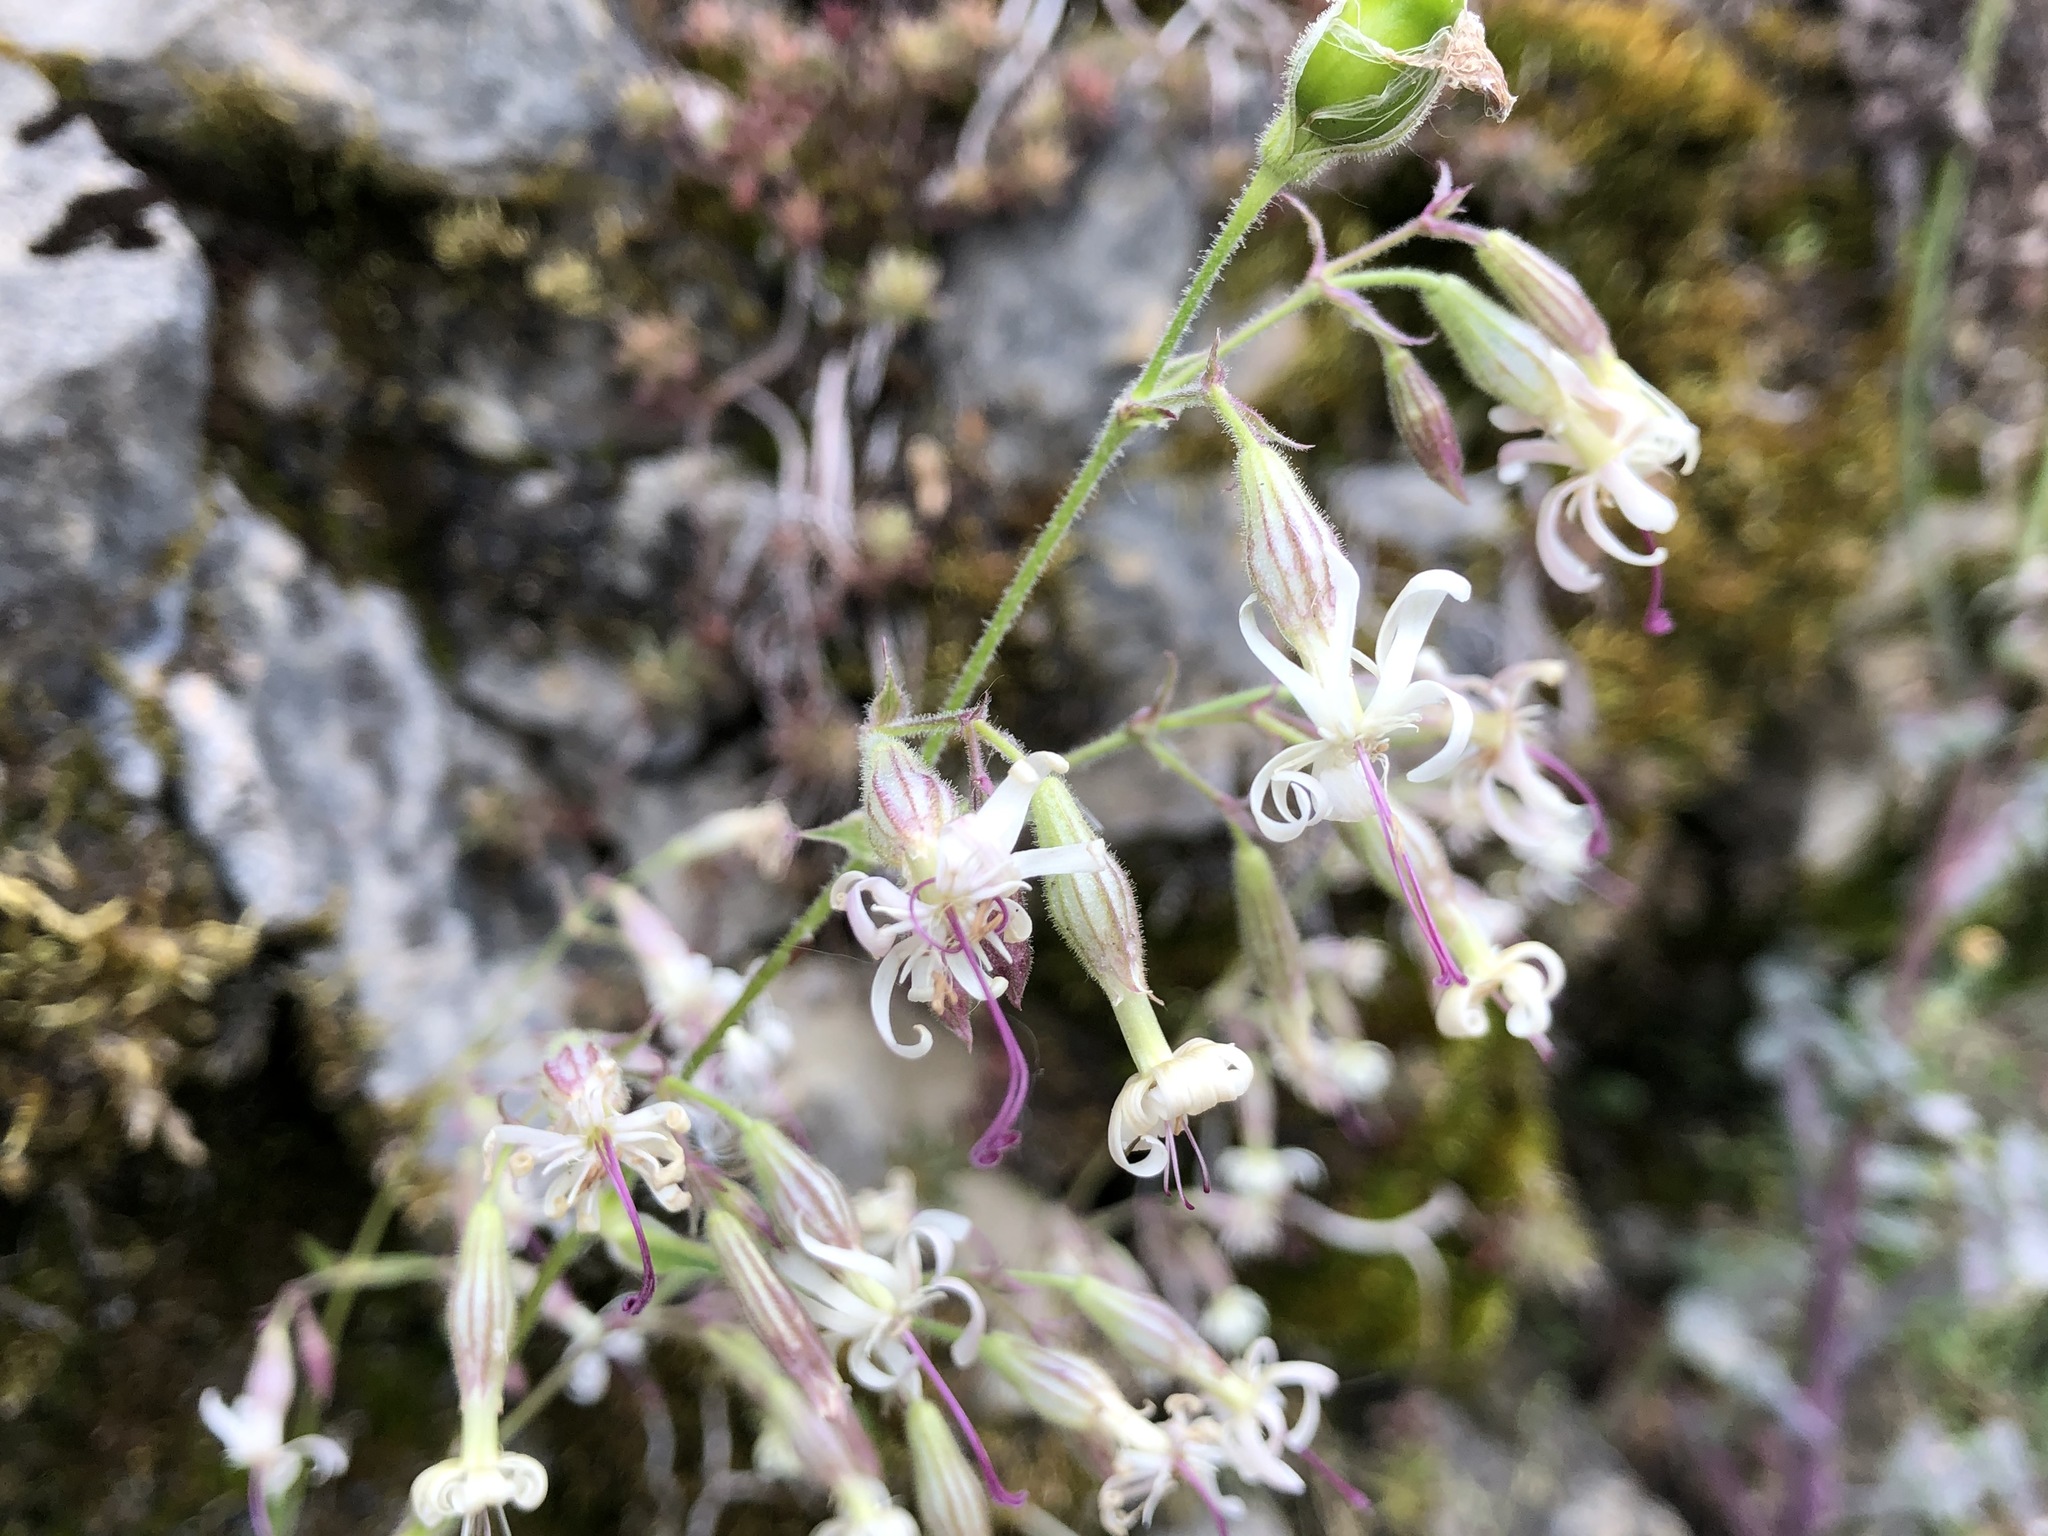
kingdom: Plantae
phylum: Tracheophyta
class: Magnoliopsida
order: Caryophyllales
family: Caryophyllaceae
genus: Silene
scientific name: Silene nutans
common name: Nottingham catchfly
